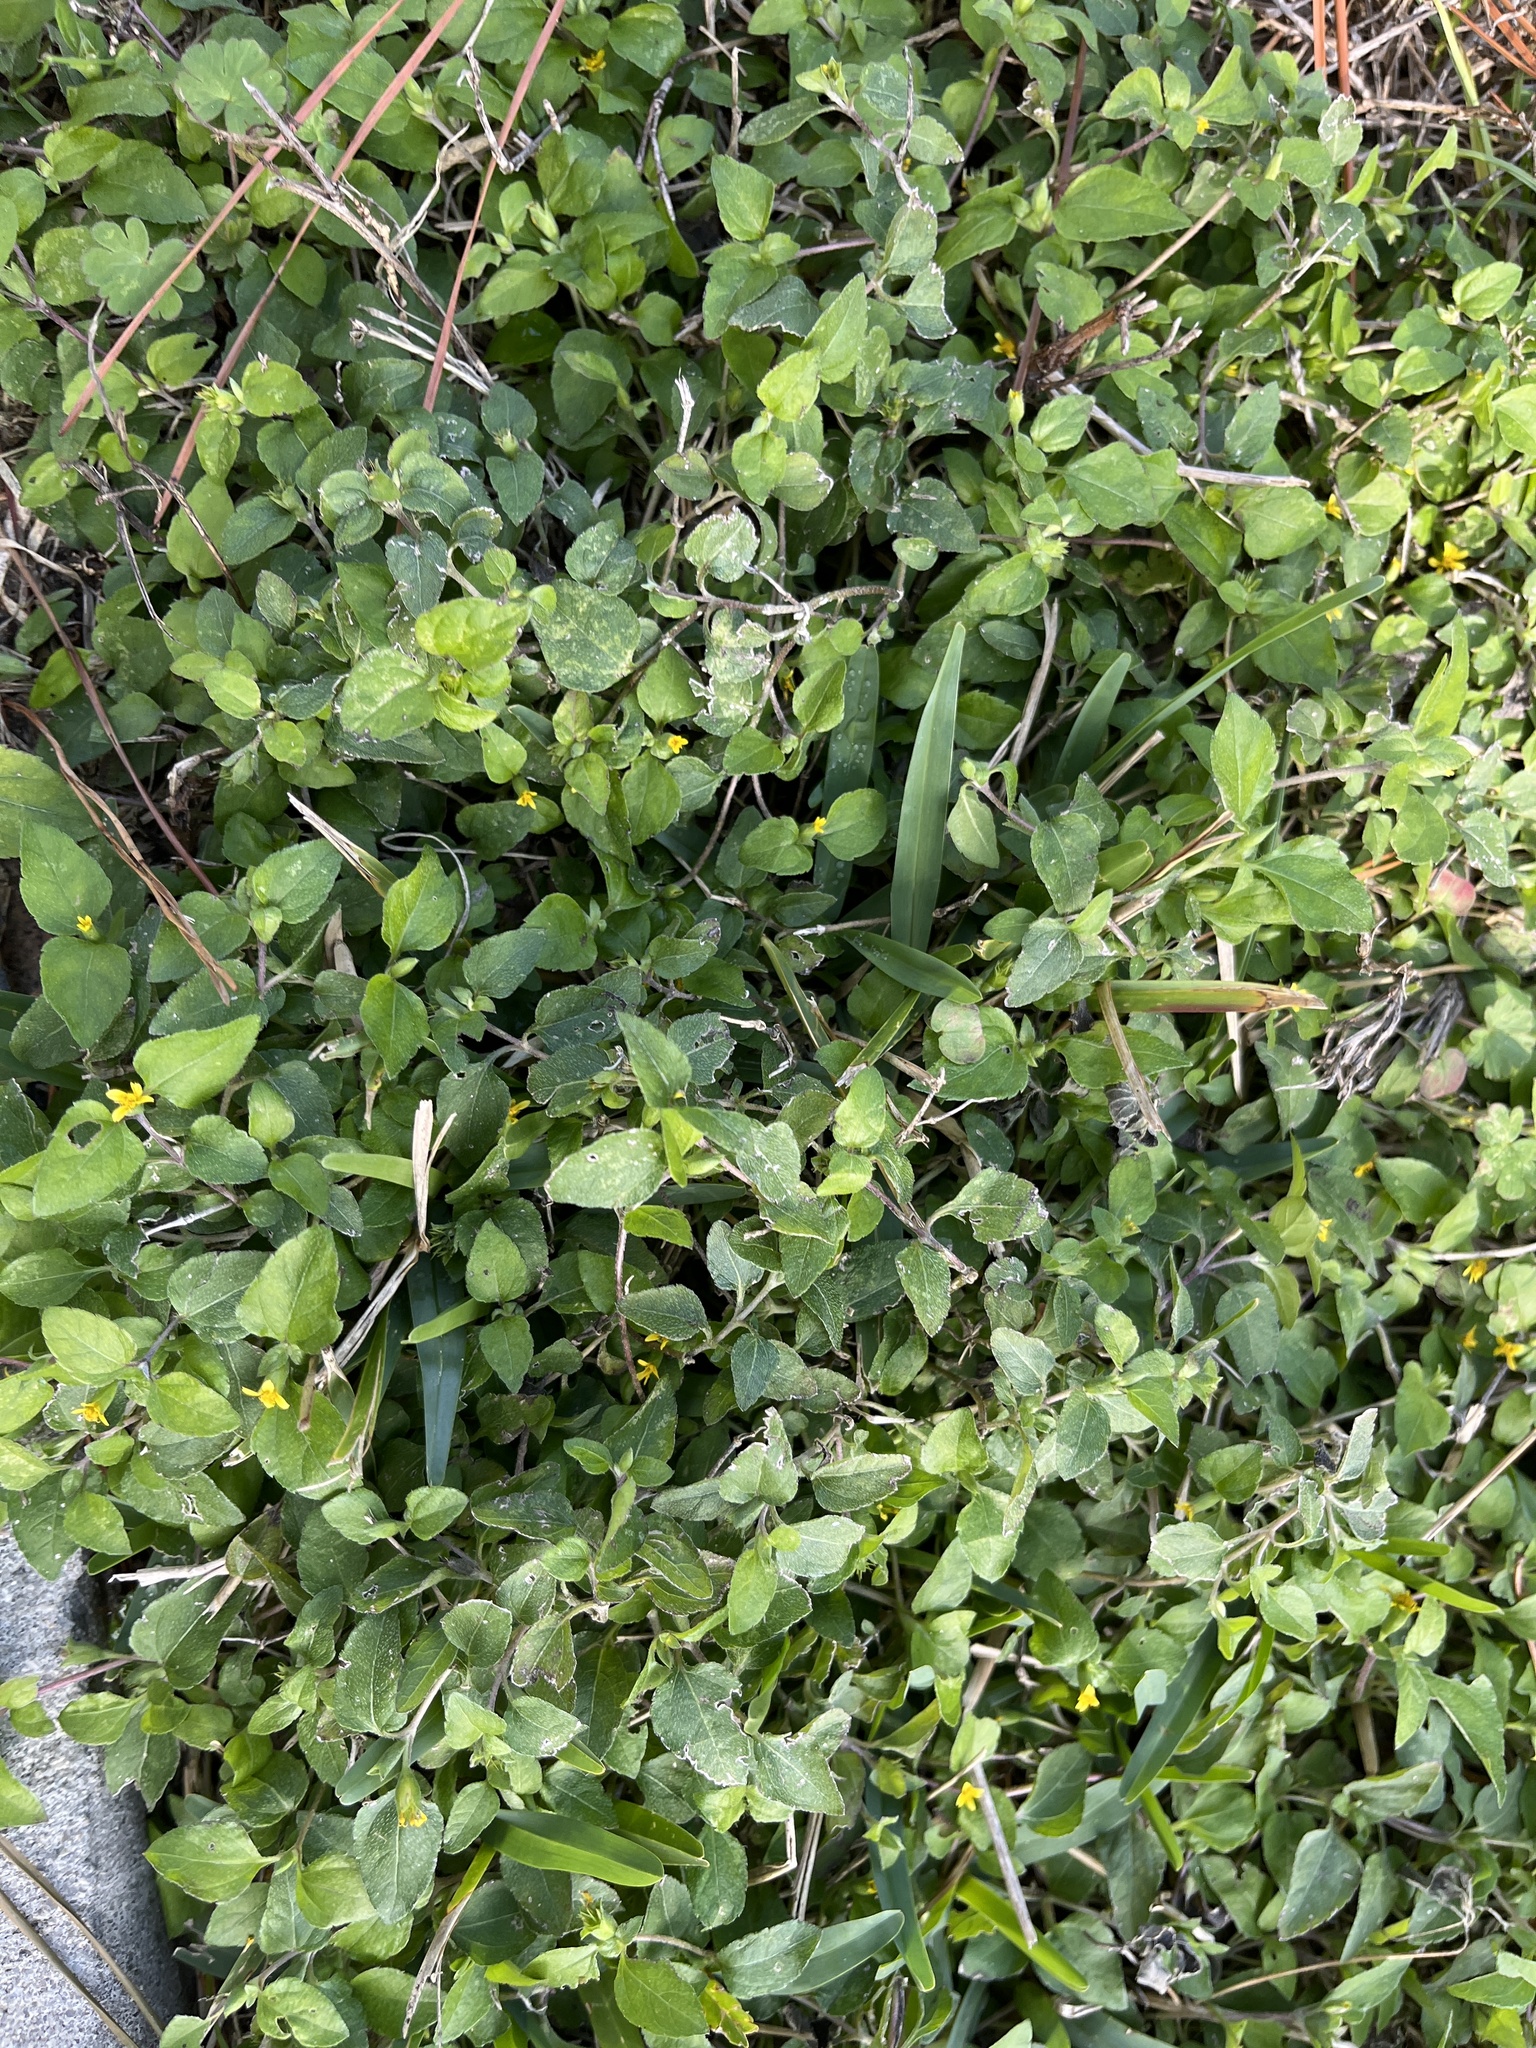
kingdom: Plantae
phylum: Tracheophyta
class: Magnoliopsida
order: Asterales
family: Asteraceae
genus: Calyptocarpus
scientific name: Calyptocarpus vialis
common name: Straggler daisy
